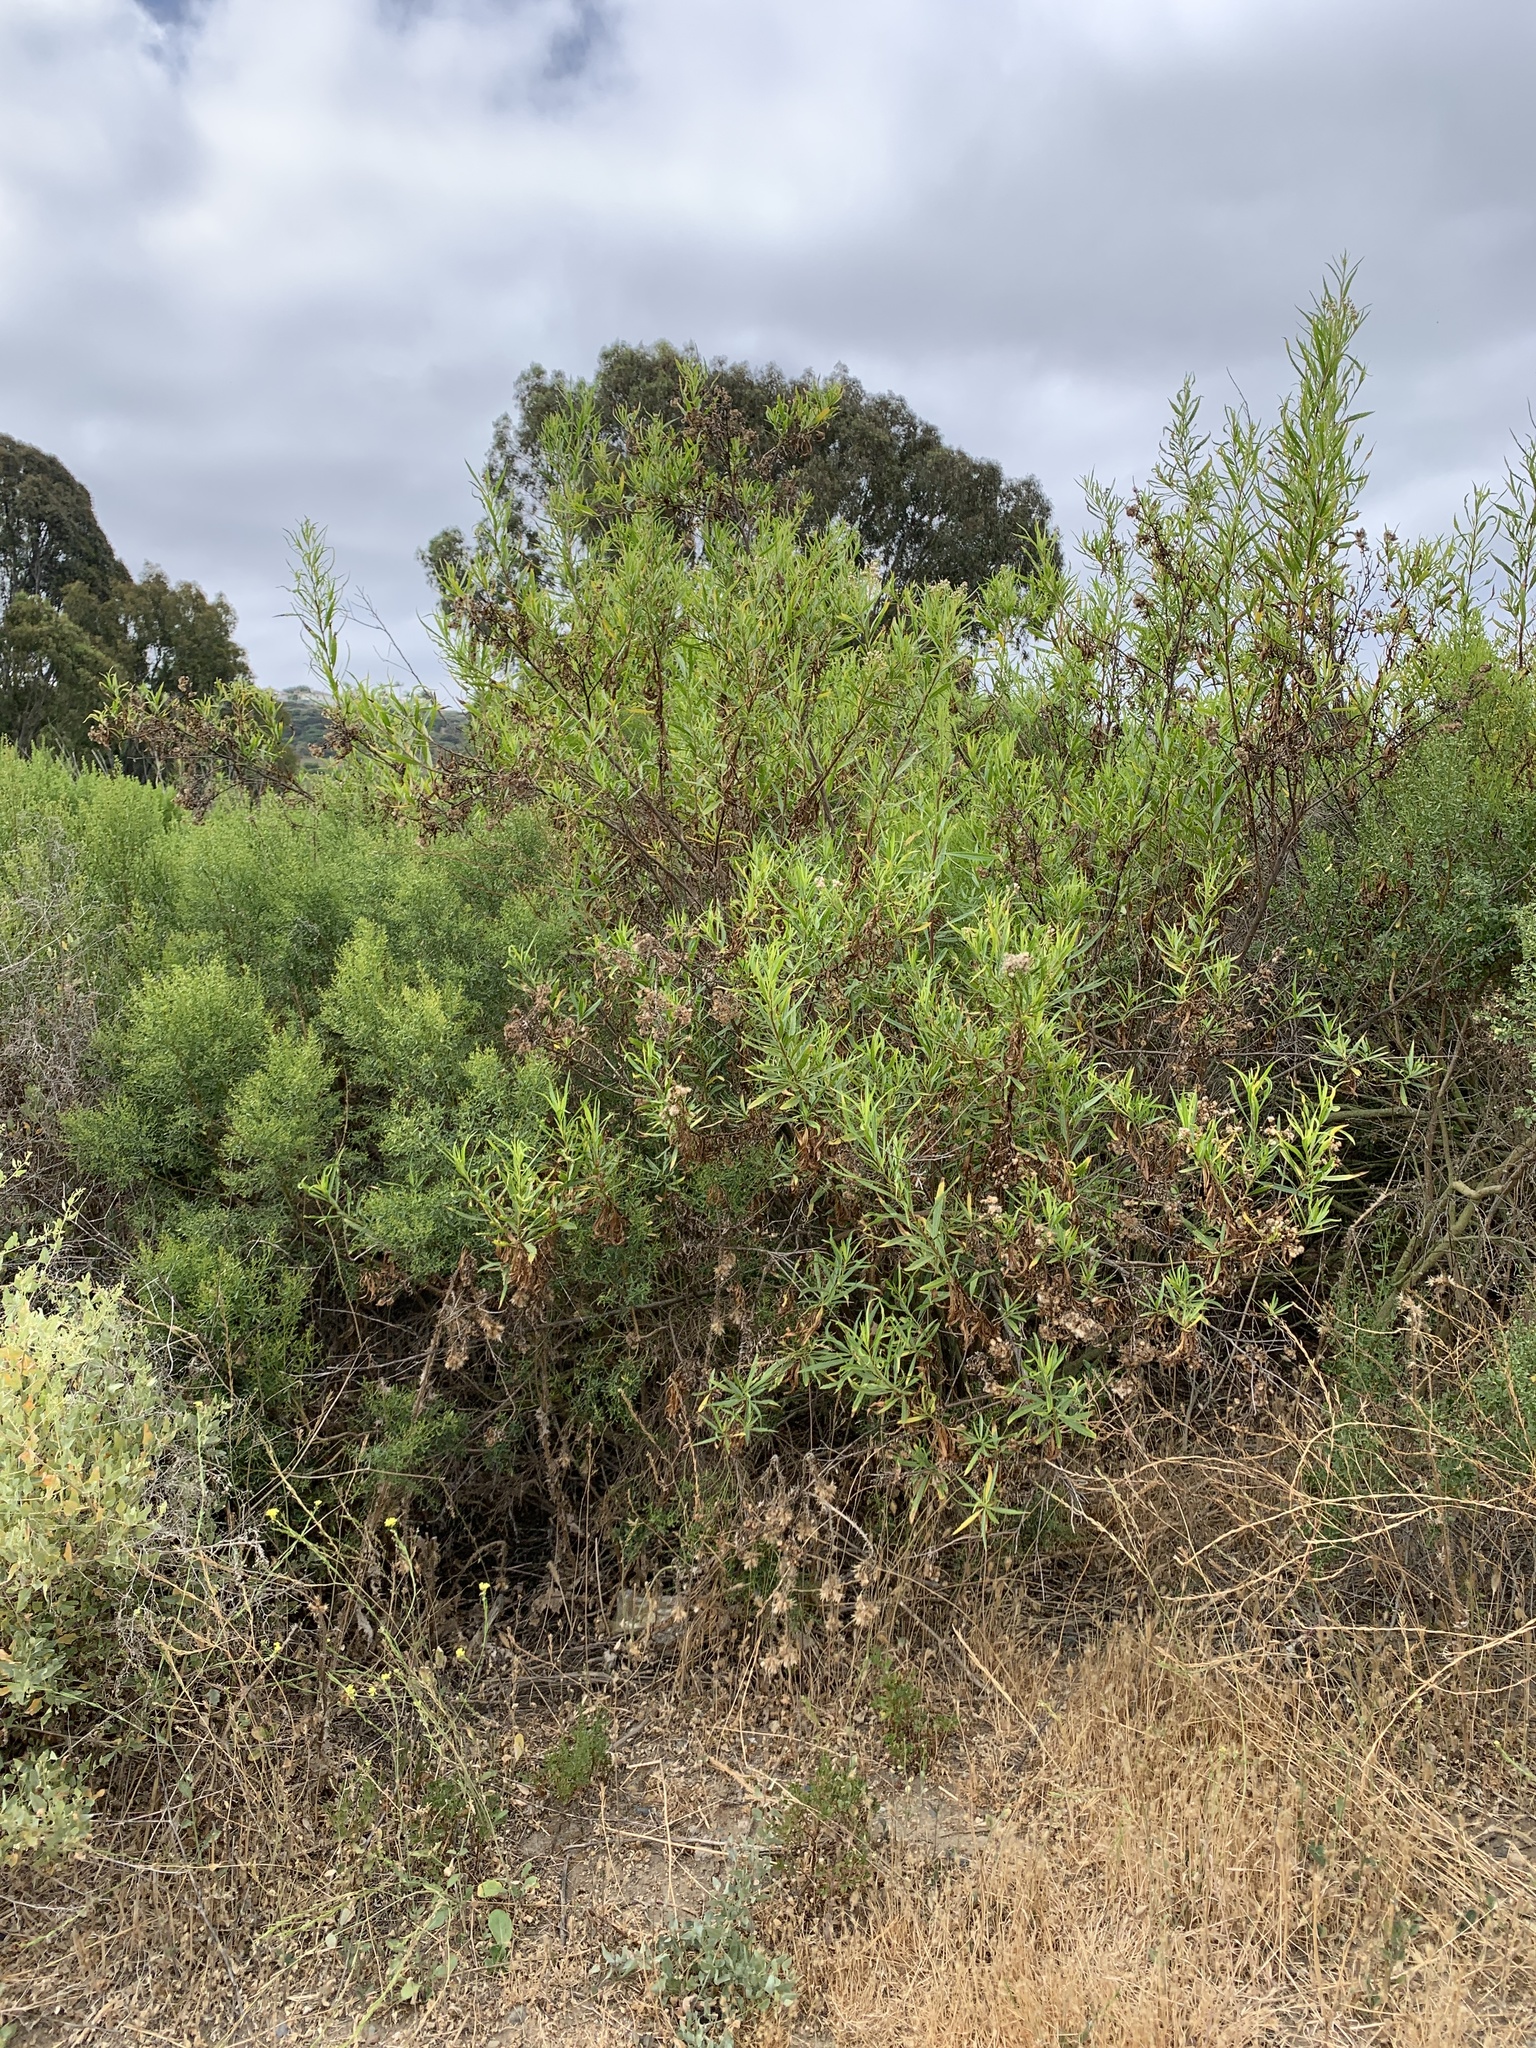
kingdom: Plantae
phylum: Tracheophyta
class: Magnoliopsida
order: Asterales
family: Asteraceae
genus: Baccharis
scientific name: Baccharis salicifolia
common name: Sticky baccharis
